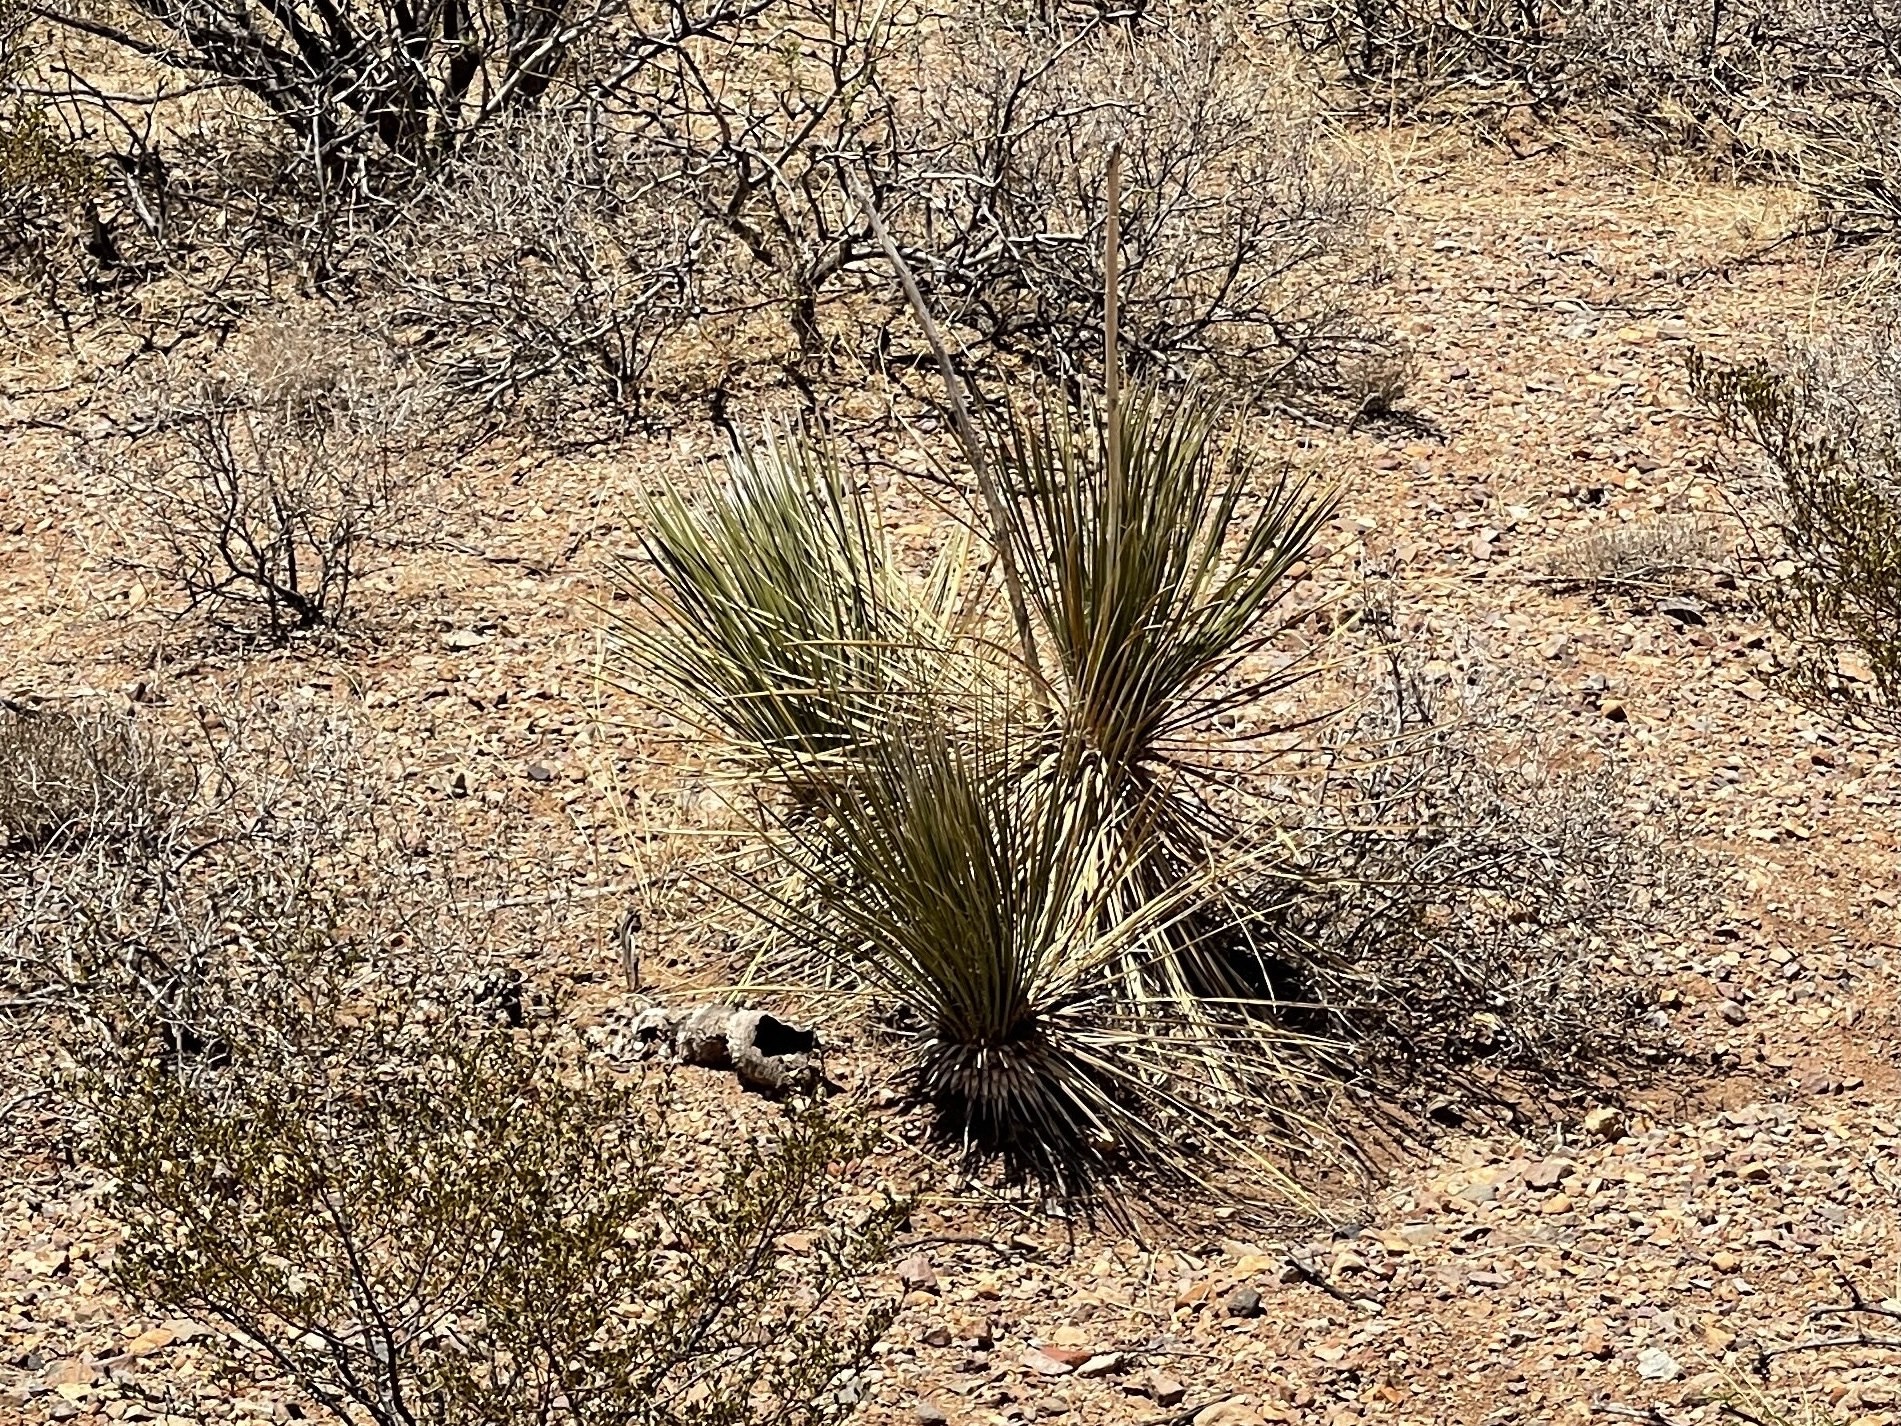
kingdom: Plantae
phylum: Tracheophyta
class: Liliopsida
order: Asparagales
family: Asparagaceae
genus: Yucca
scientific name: Yucca elata
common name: Palmella
